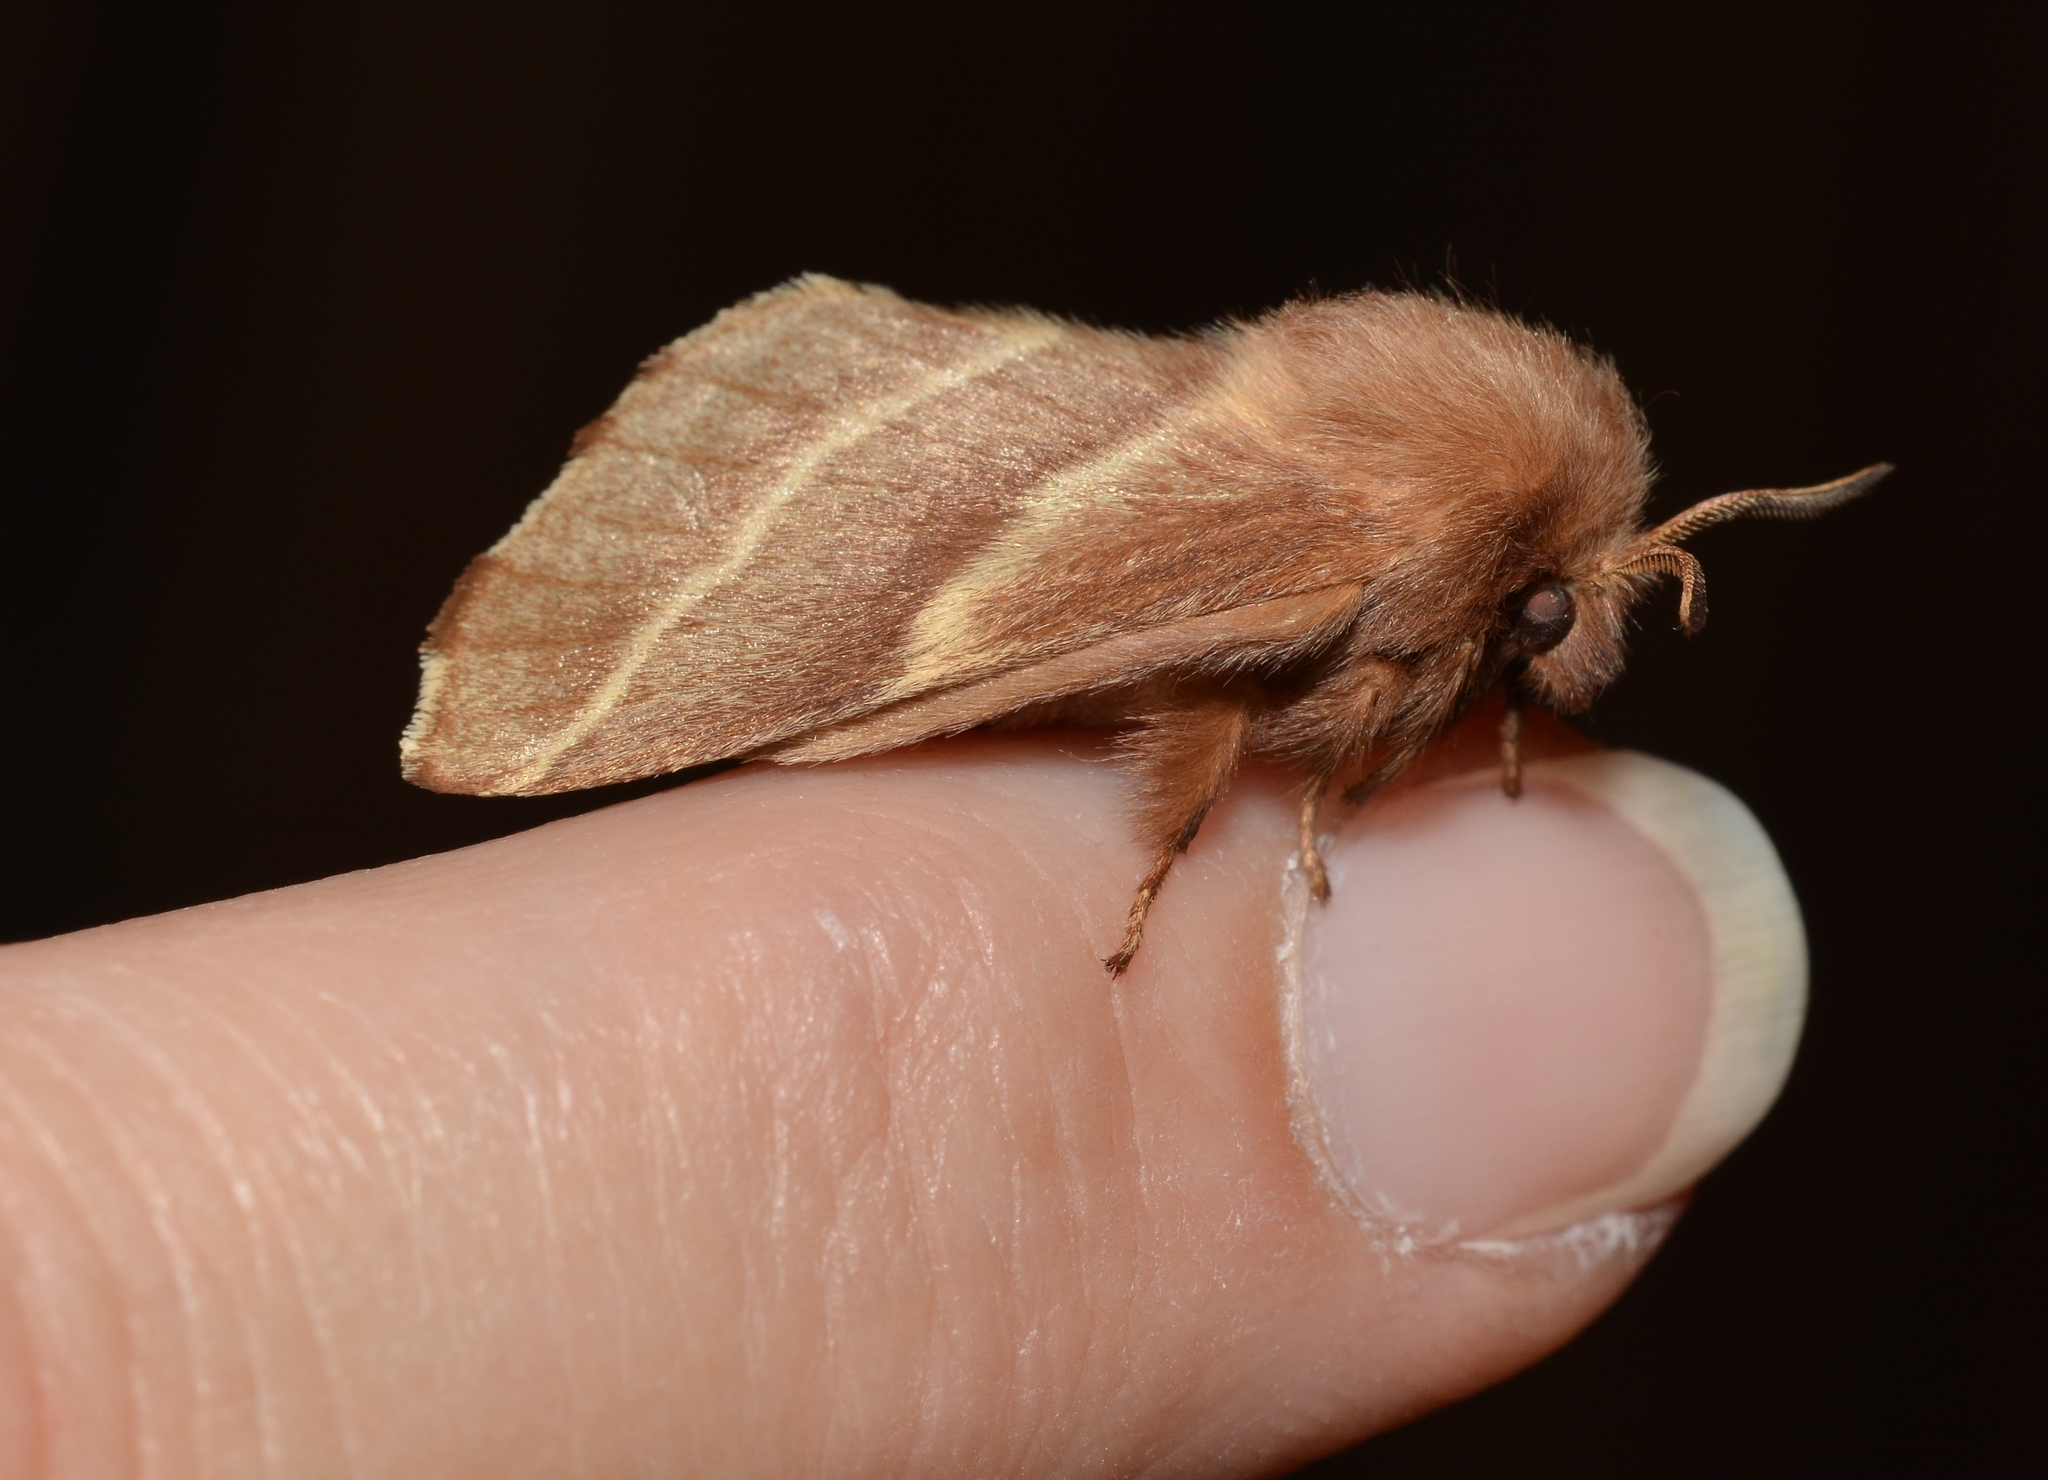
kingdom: Animalia
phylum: Arthropoda
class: Insecta
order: Lepidoptera
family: Lasiocampidae
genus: Malacosoma
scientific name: Malacosoma americana
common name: Eastern tent caterpillar moth
